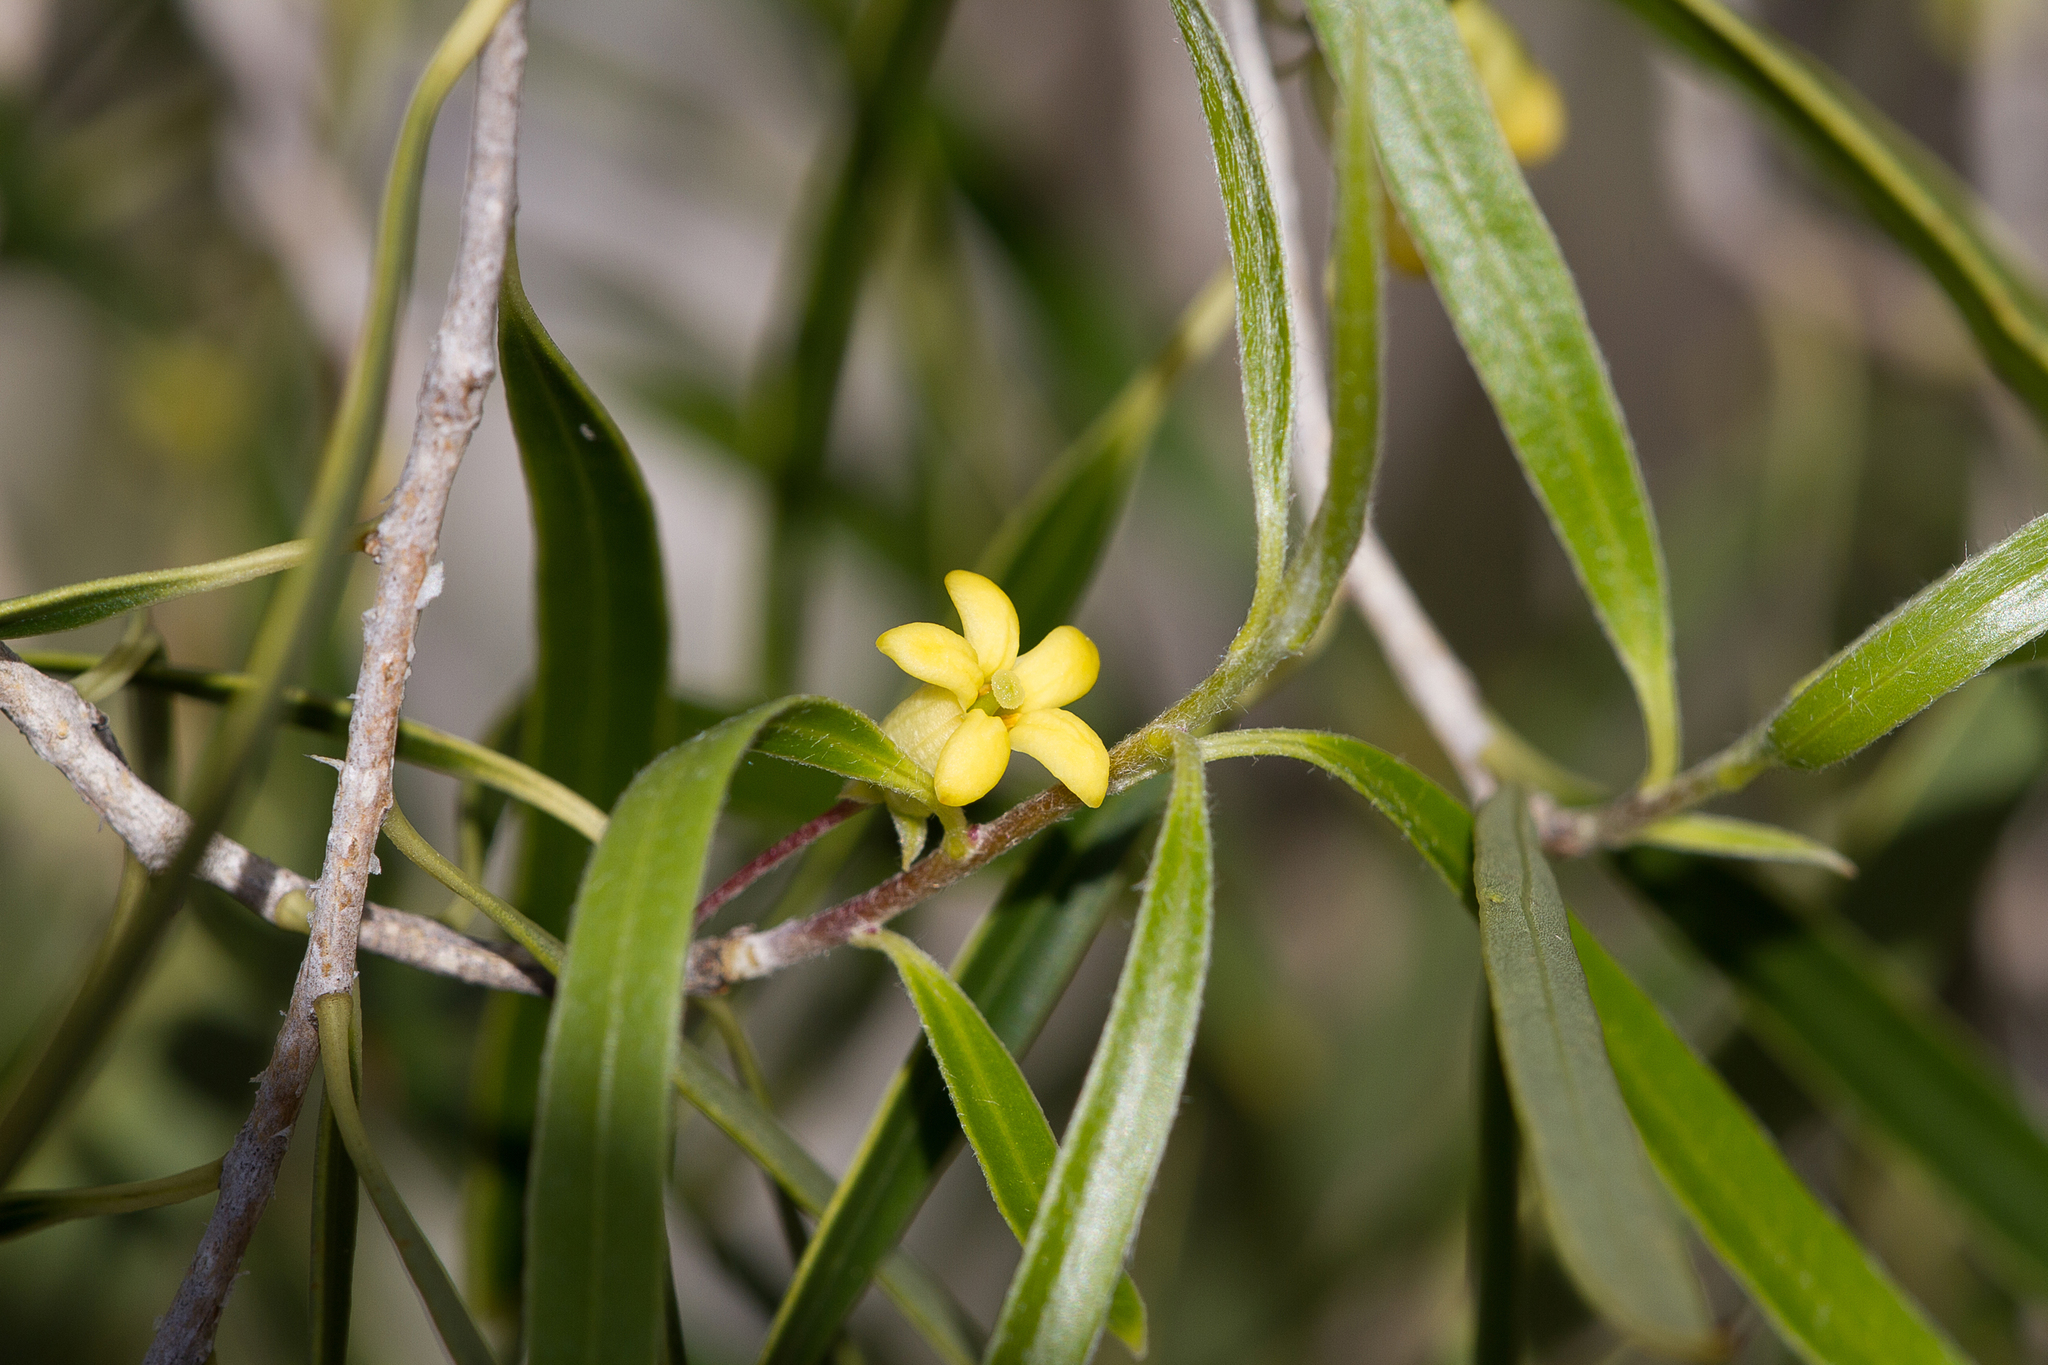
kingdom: Plantae
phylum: Tracheophyta
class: Magnoliopsida
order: Apiales
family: Pittosporaceae
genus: Pittosporum
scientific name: Pittosporum angustifolium
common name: Weeping pittosporum
